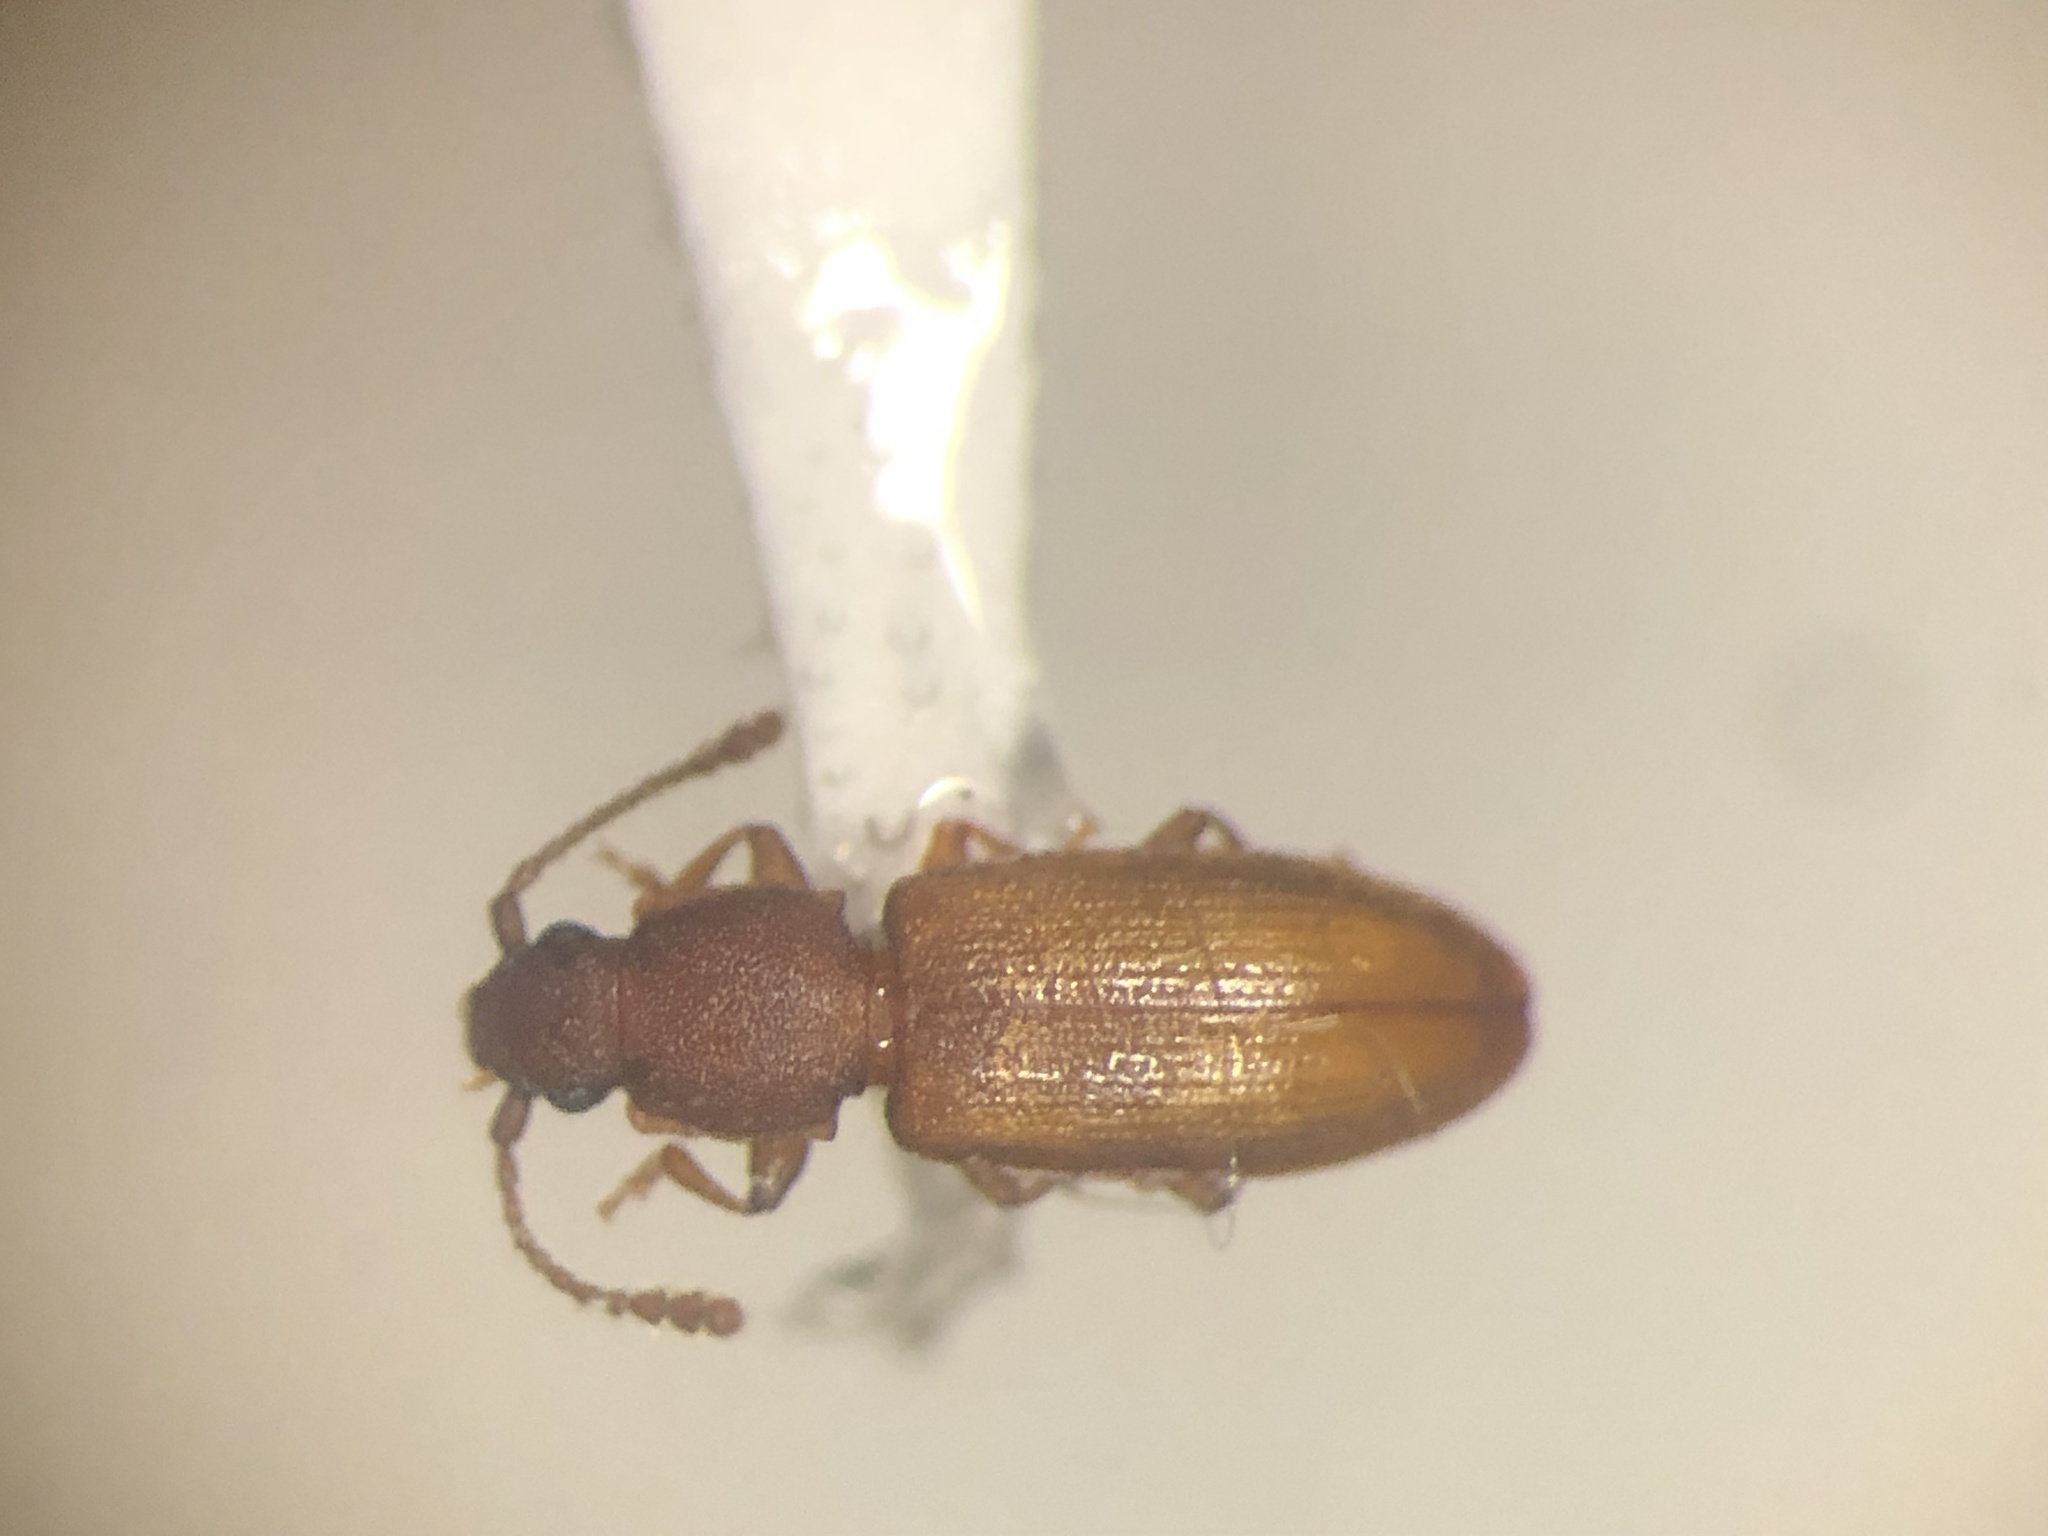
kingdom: Animalia
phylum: Arthropoda
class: Insecta
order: Coleoptera
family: Silvanidae
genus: Ahasverus
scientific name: Ahasverus longulus
